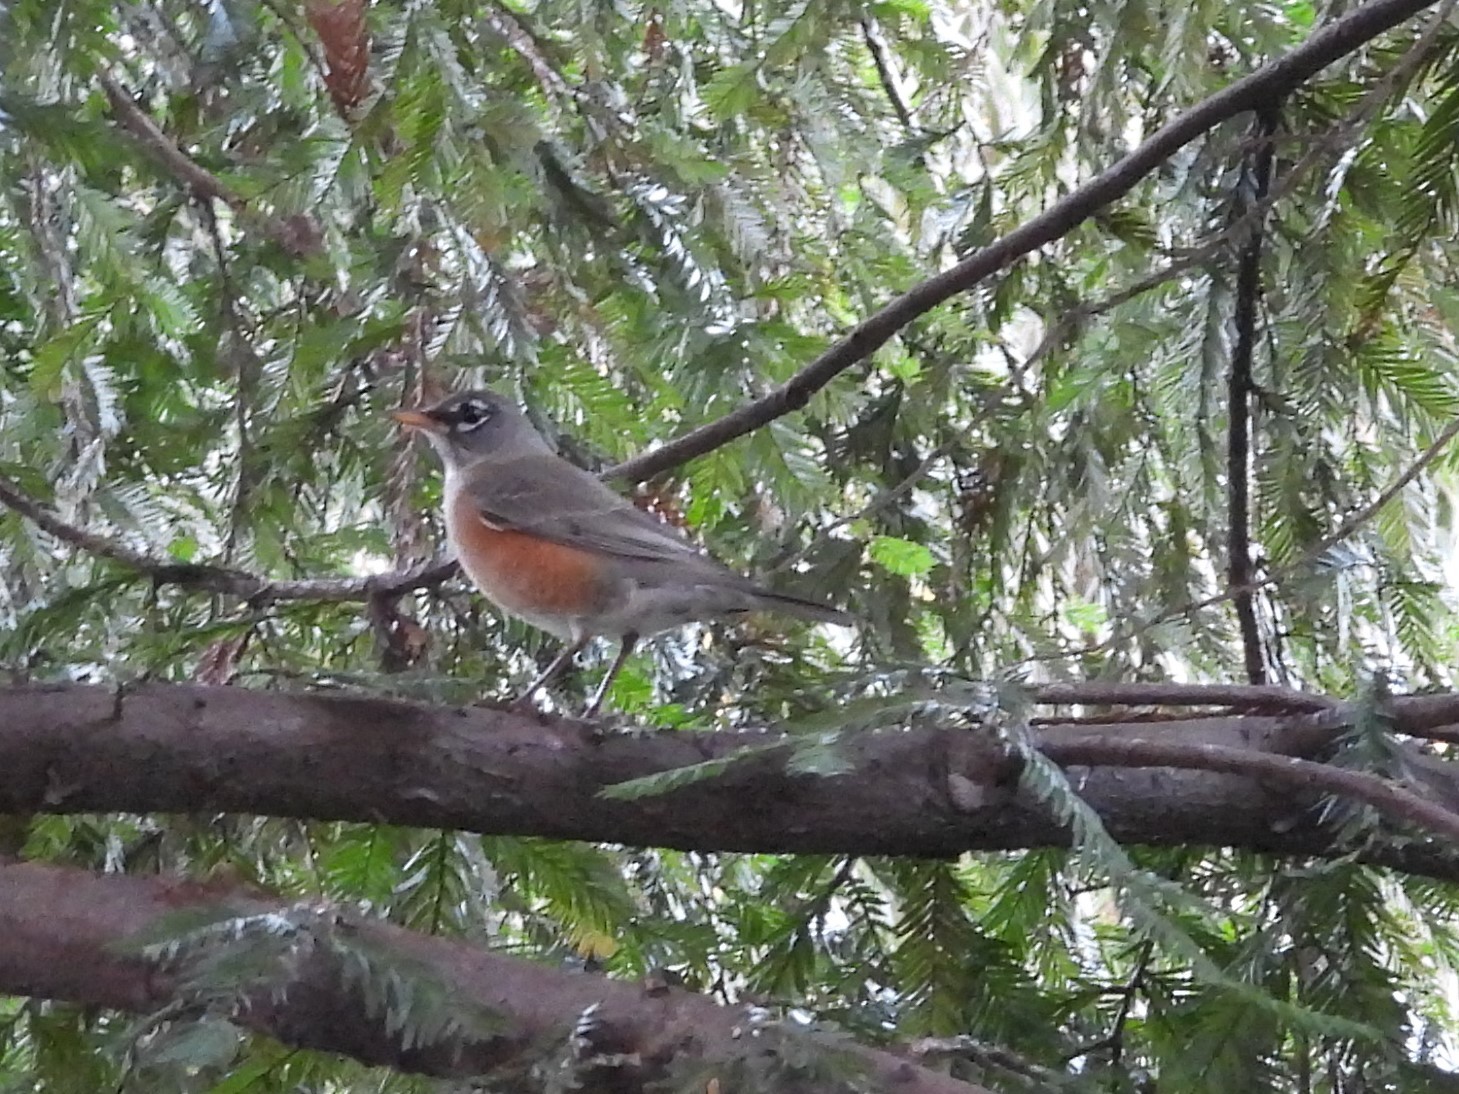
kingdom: Animalia
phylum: Chordata
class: Aves
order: Passeriformes
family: Turdidae
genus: Turdus
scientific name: Turdus migratorius
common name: American robin
